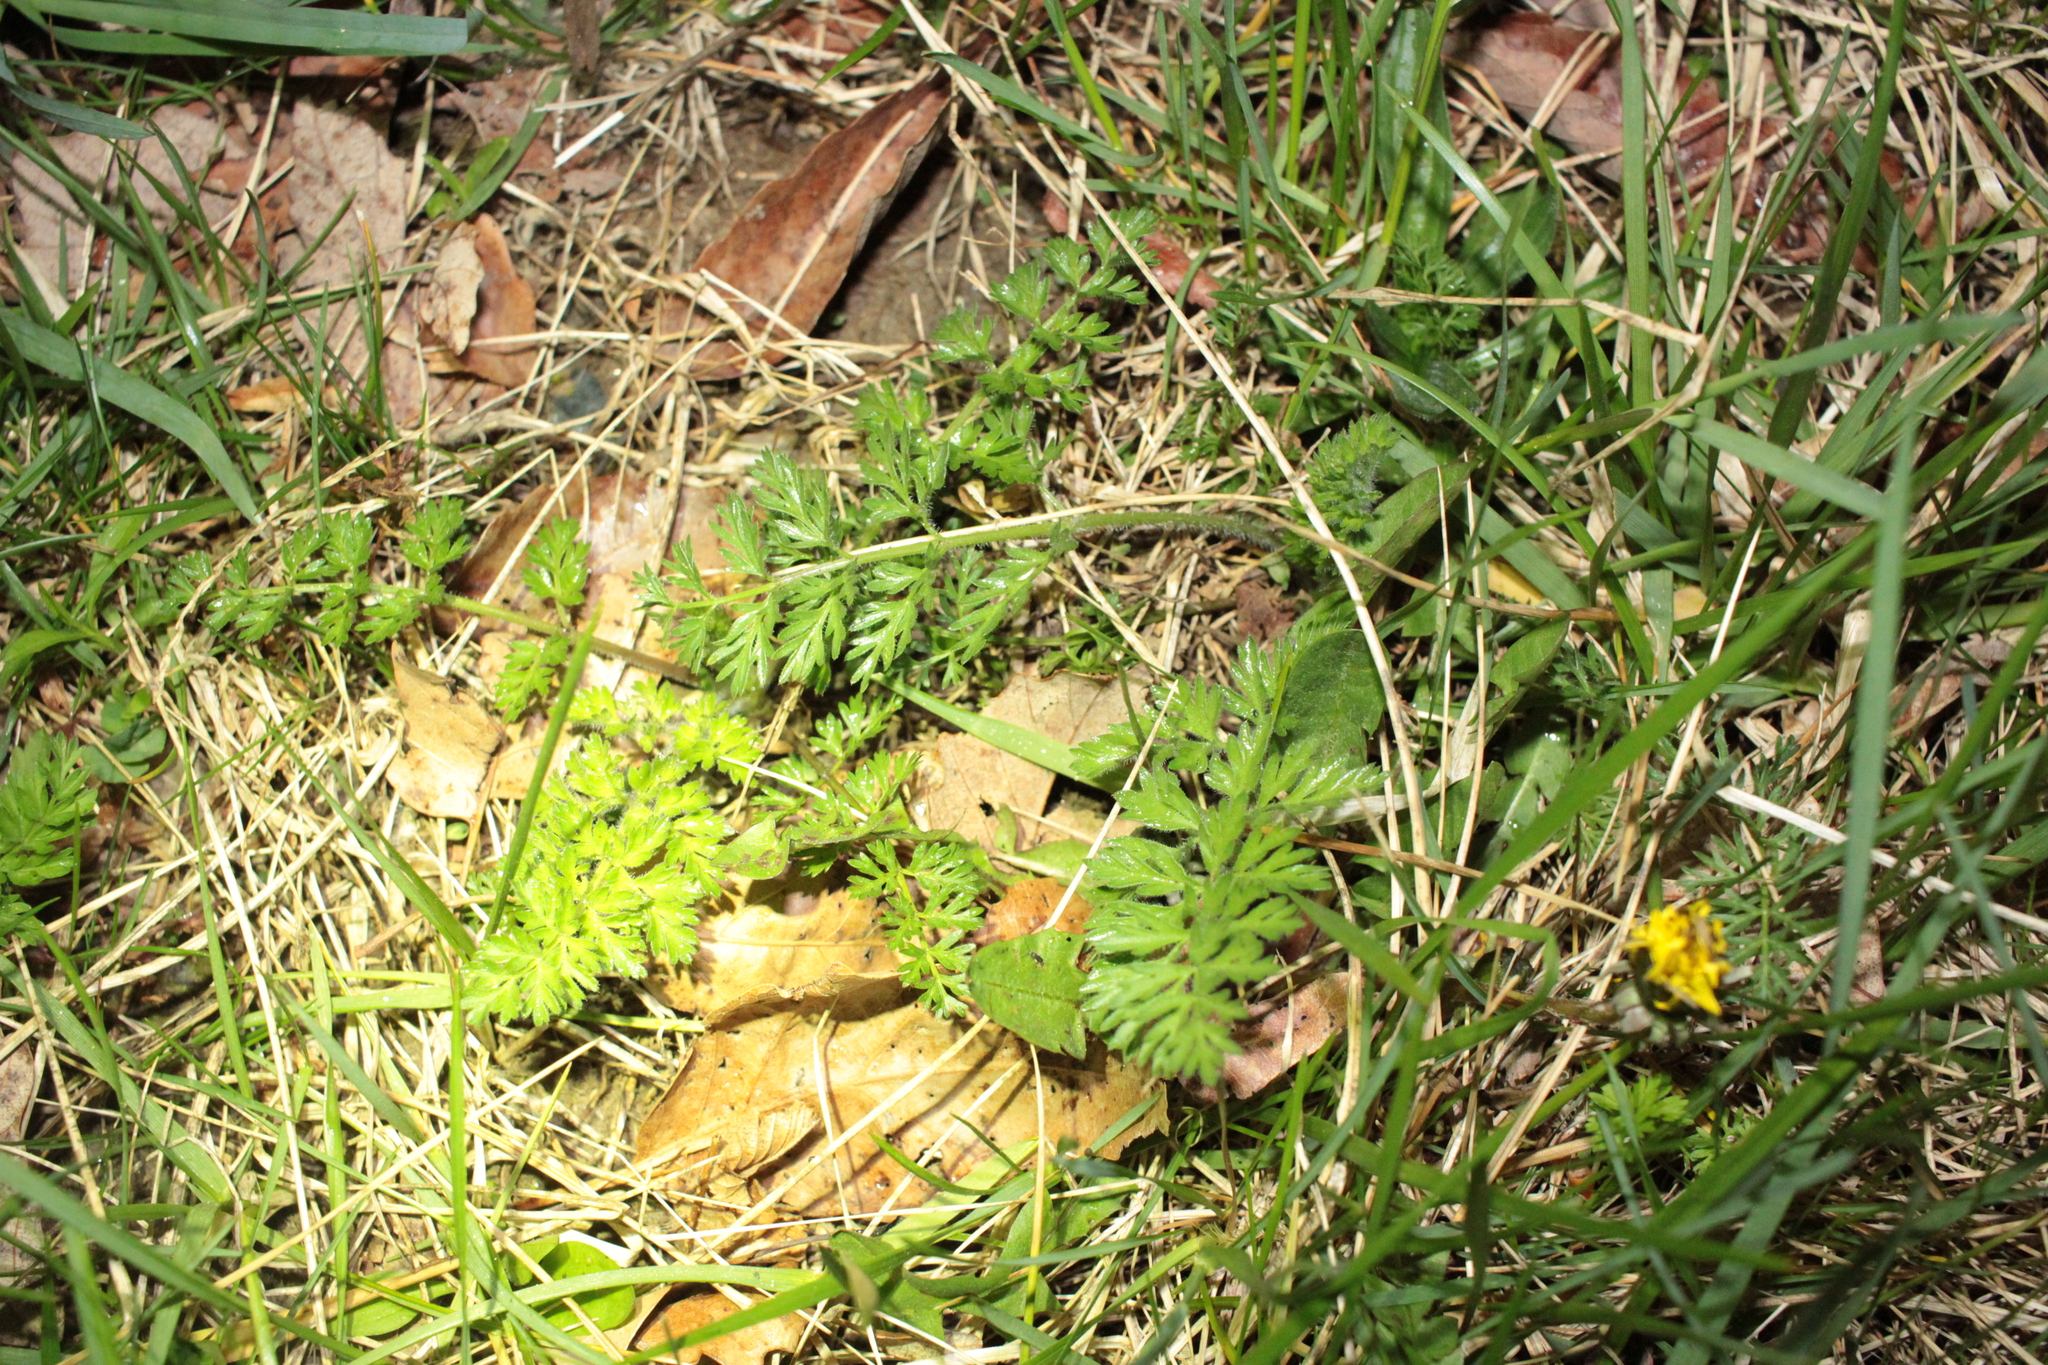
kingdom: Plantae
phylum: Tracheophyta
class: Magnoliopsida
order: Apiales
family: Apiaceae
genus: Daucus
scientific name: Daucus carota
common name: Wild carrot
